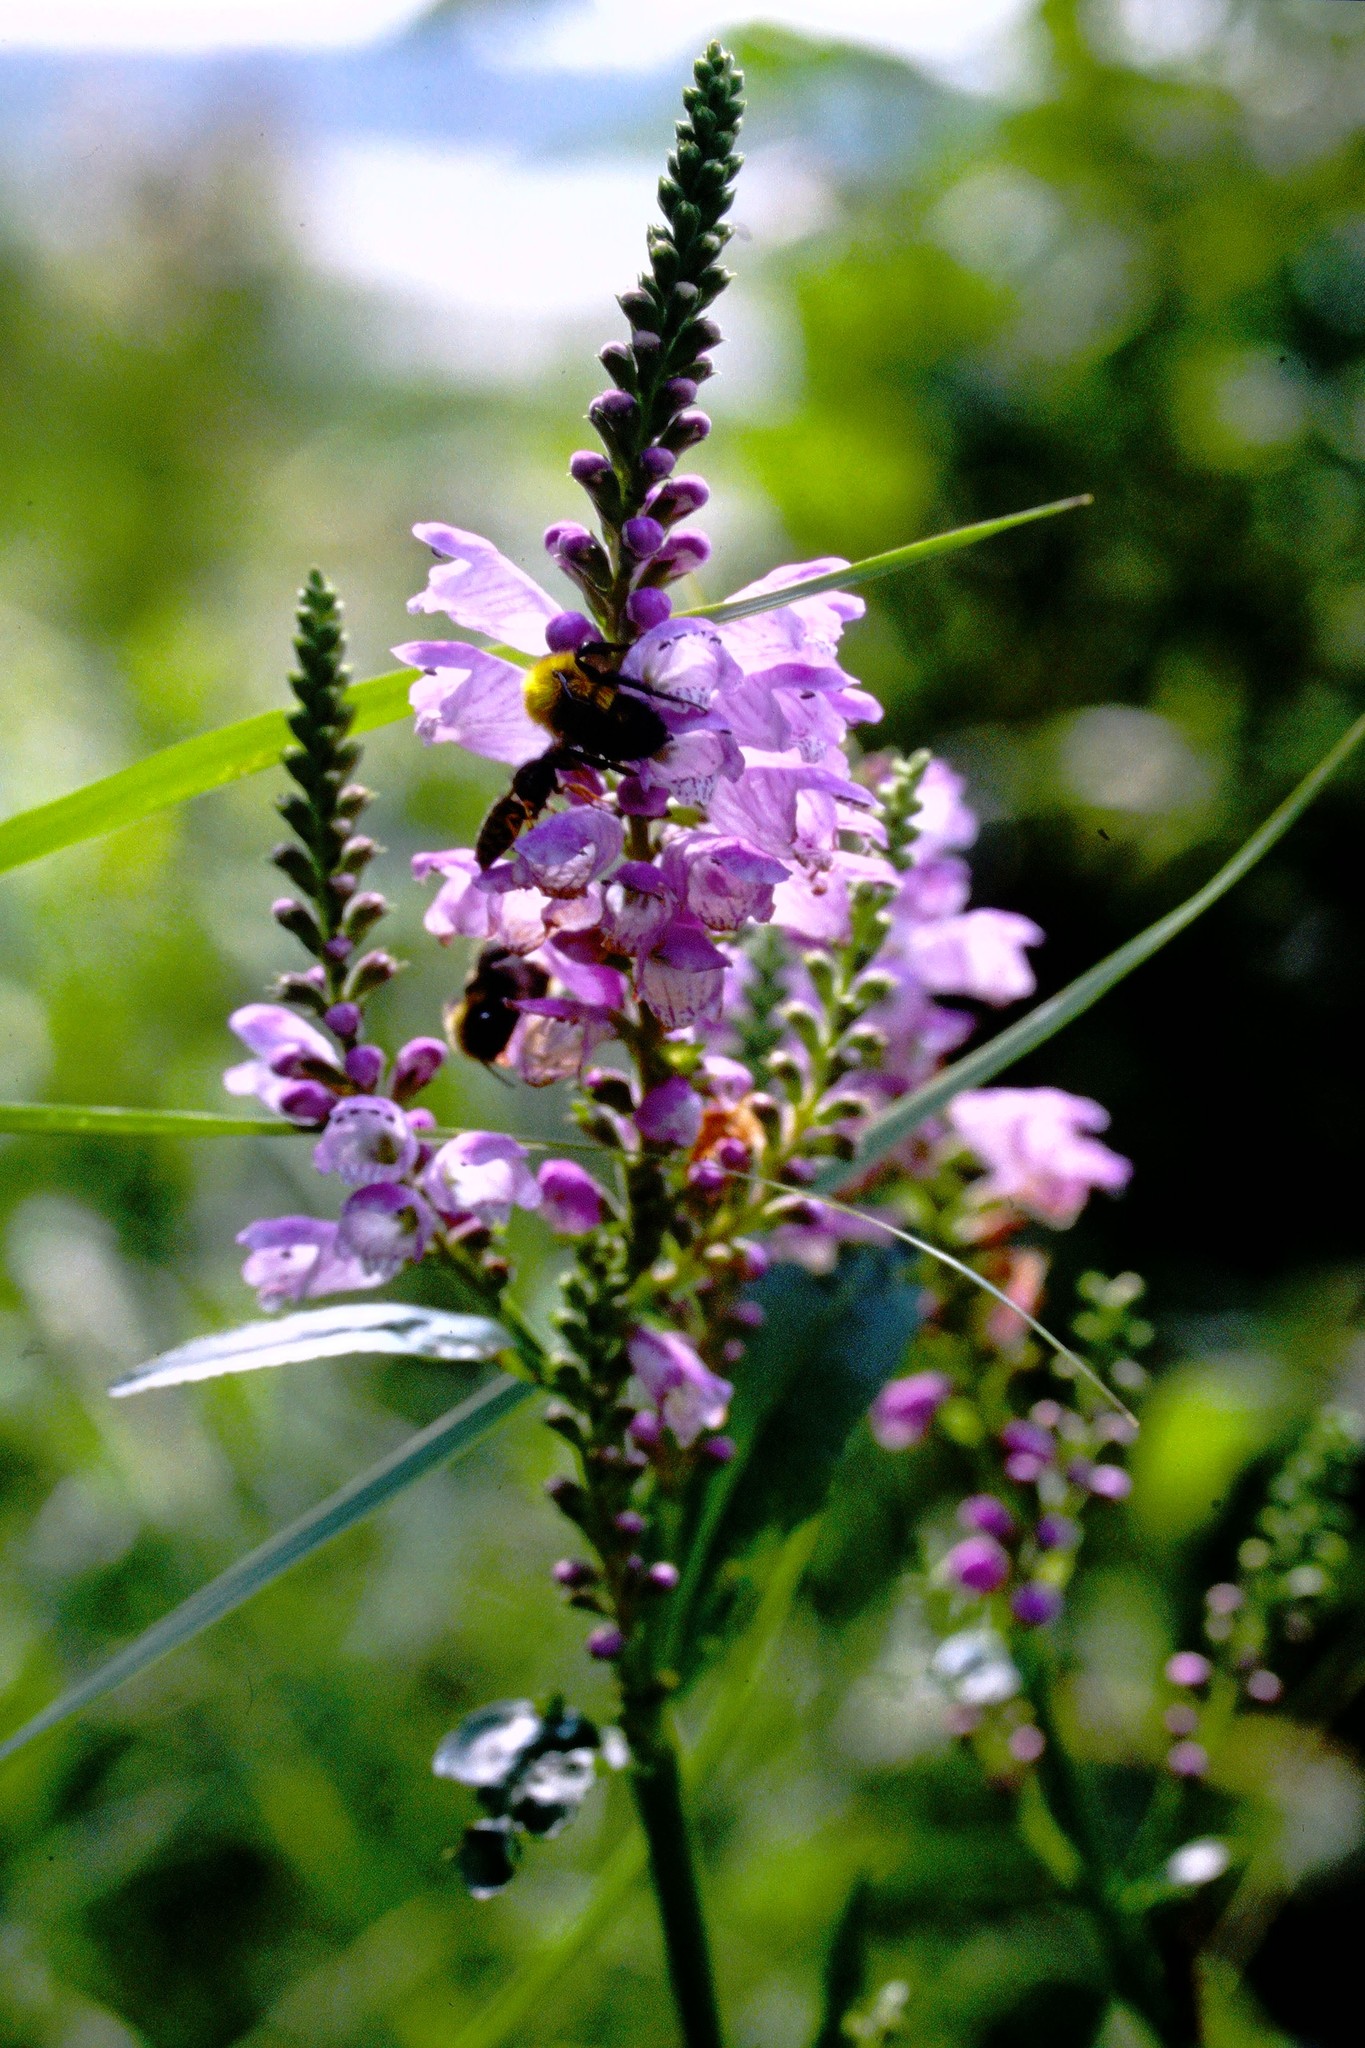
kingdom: Plantae
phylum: Tracheophyta
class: Magnoliopsida
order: Lamiales
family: Lamiaceae
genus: Physostegia
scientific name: Physostegia virginiana
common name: Obedient-plant
